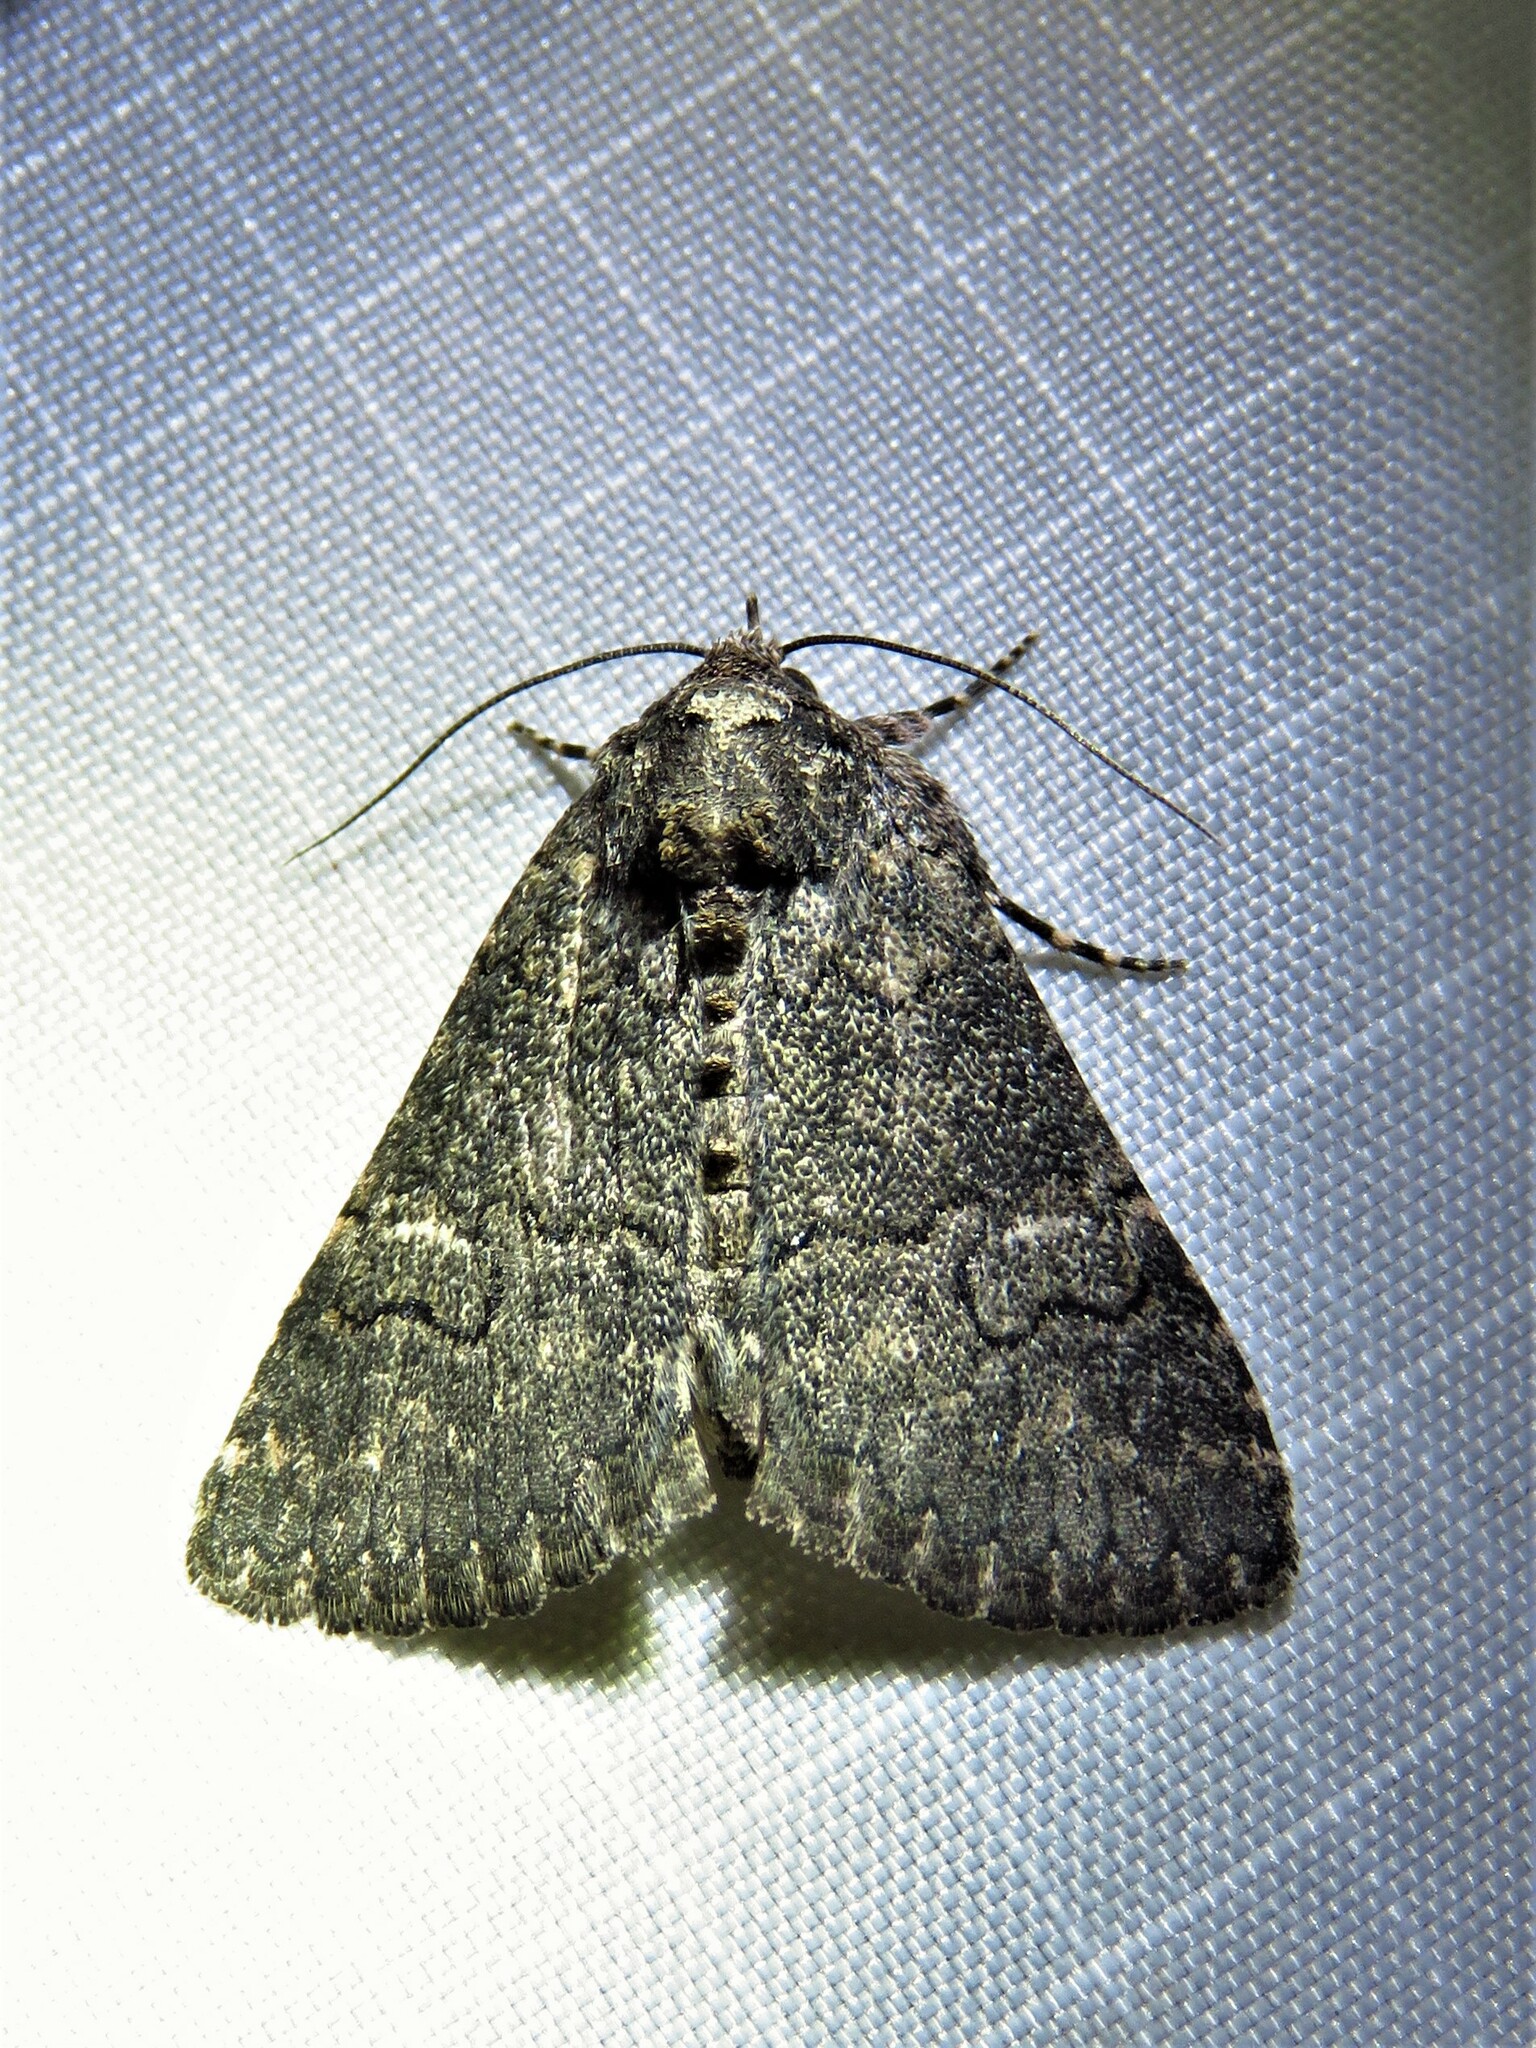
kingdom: Animalia
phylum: Arthropoda
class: Insecta
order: Lepidoptera
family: Erebidae
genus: Elousa
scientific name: Elousa mima
